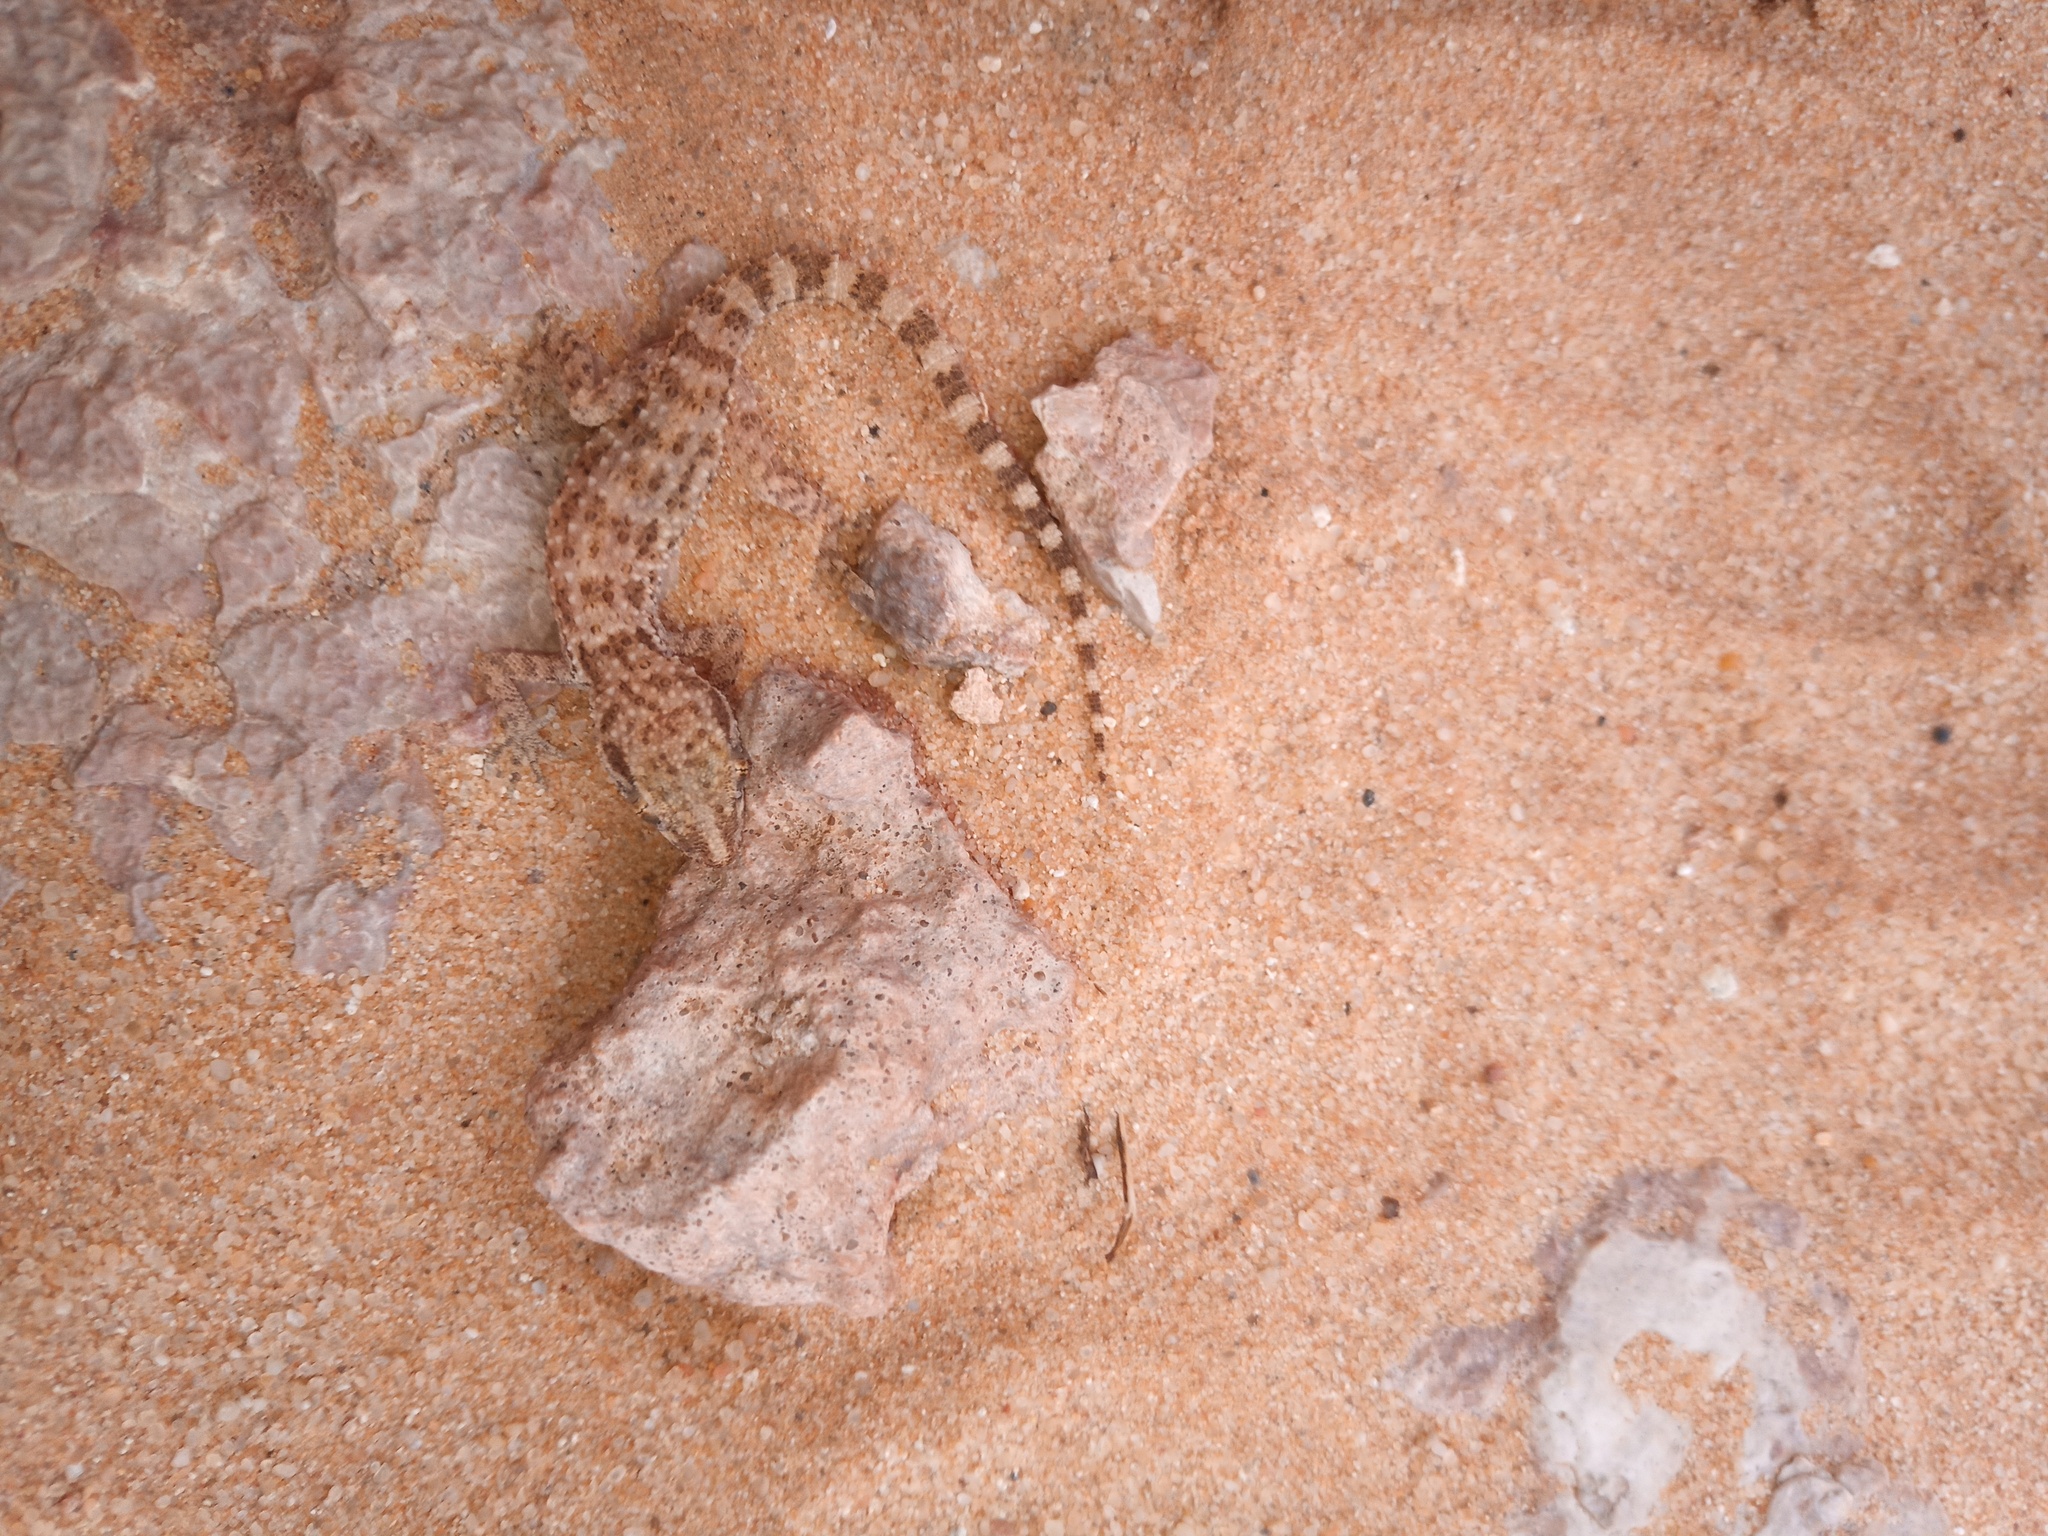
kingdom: Animalia
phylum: Chordata
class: Squamata
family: Gekkonidae
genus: Bunopus
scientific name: Bunopus tuberculatus
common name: Southern tuberculated gecko
